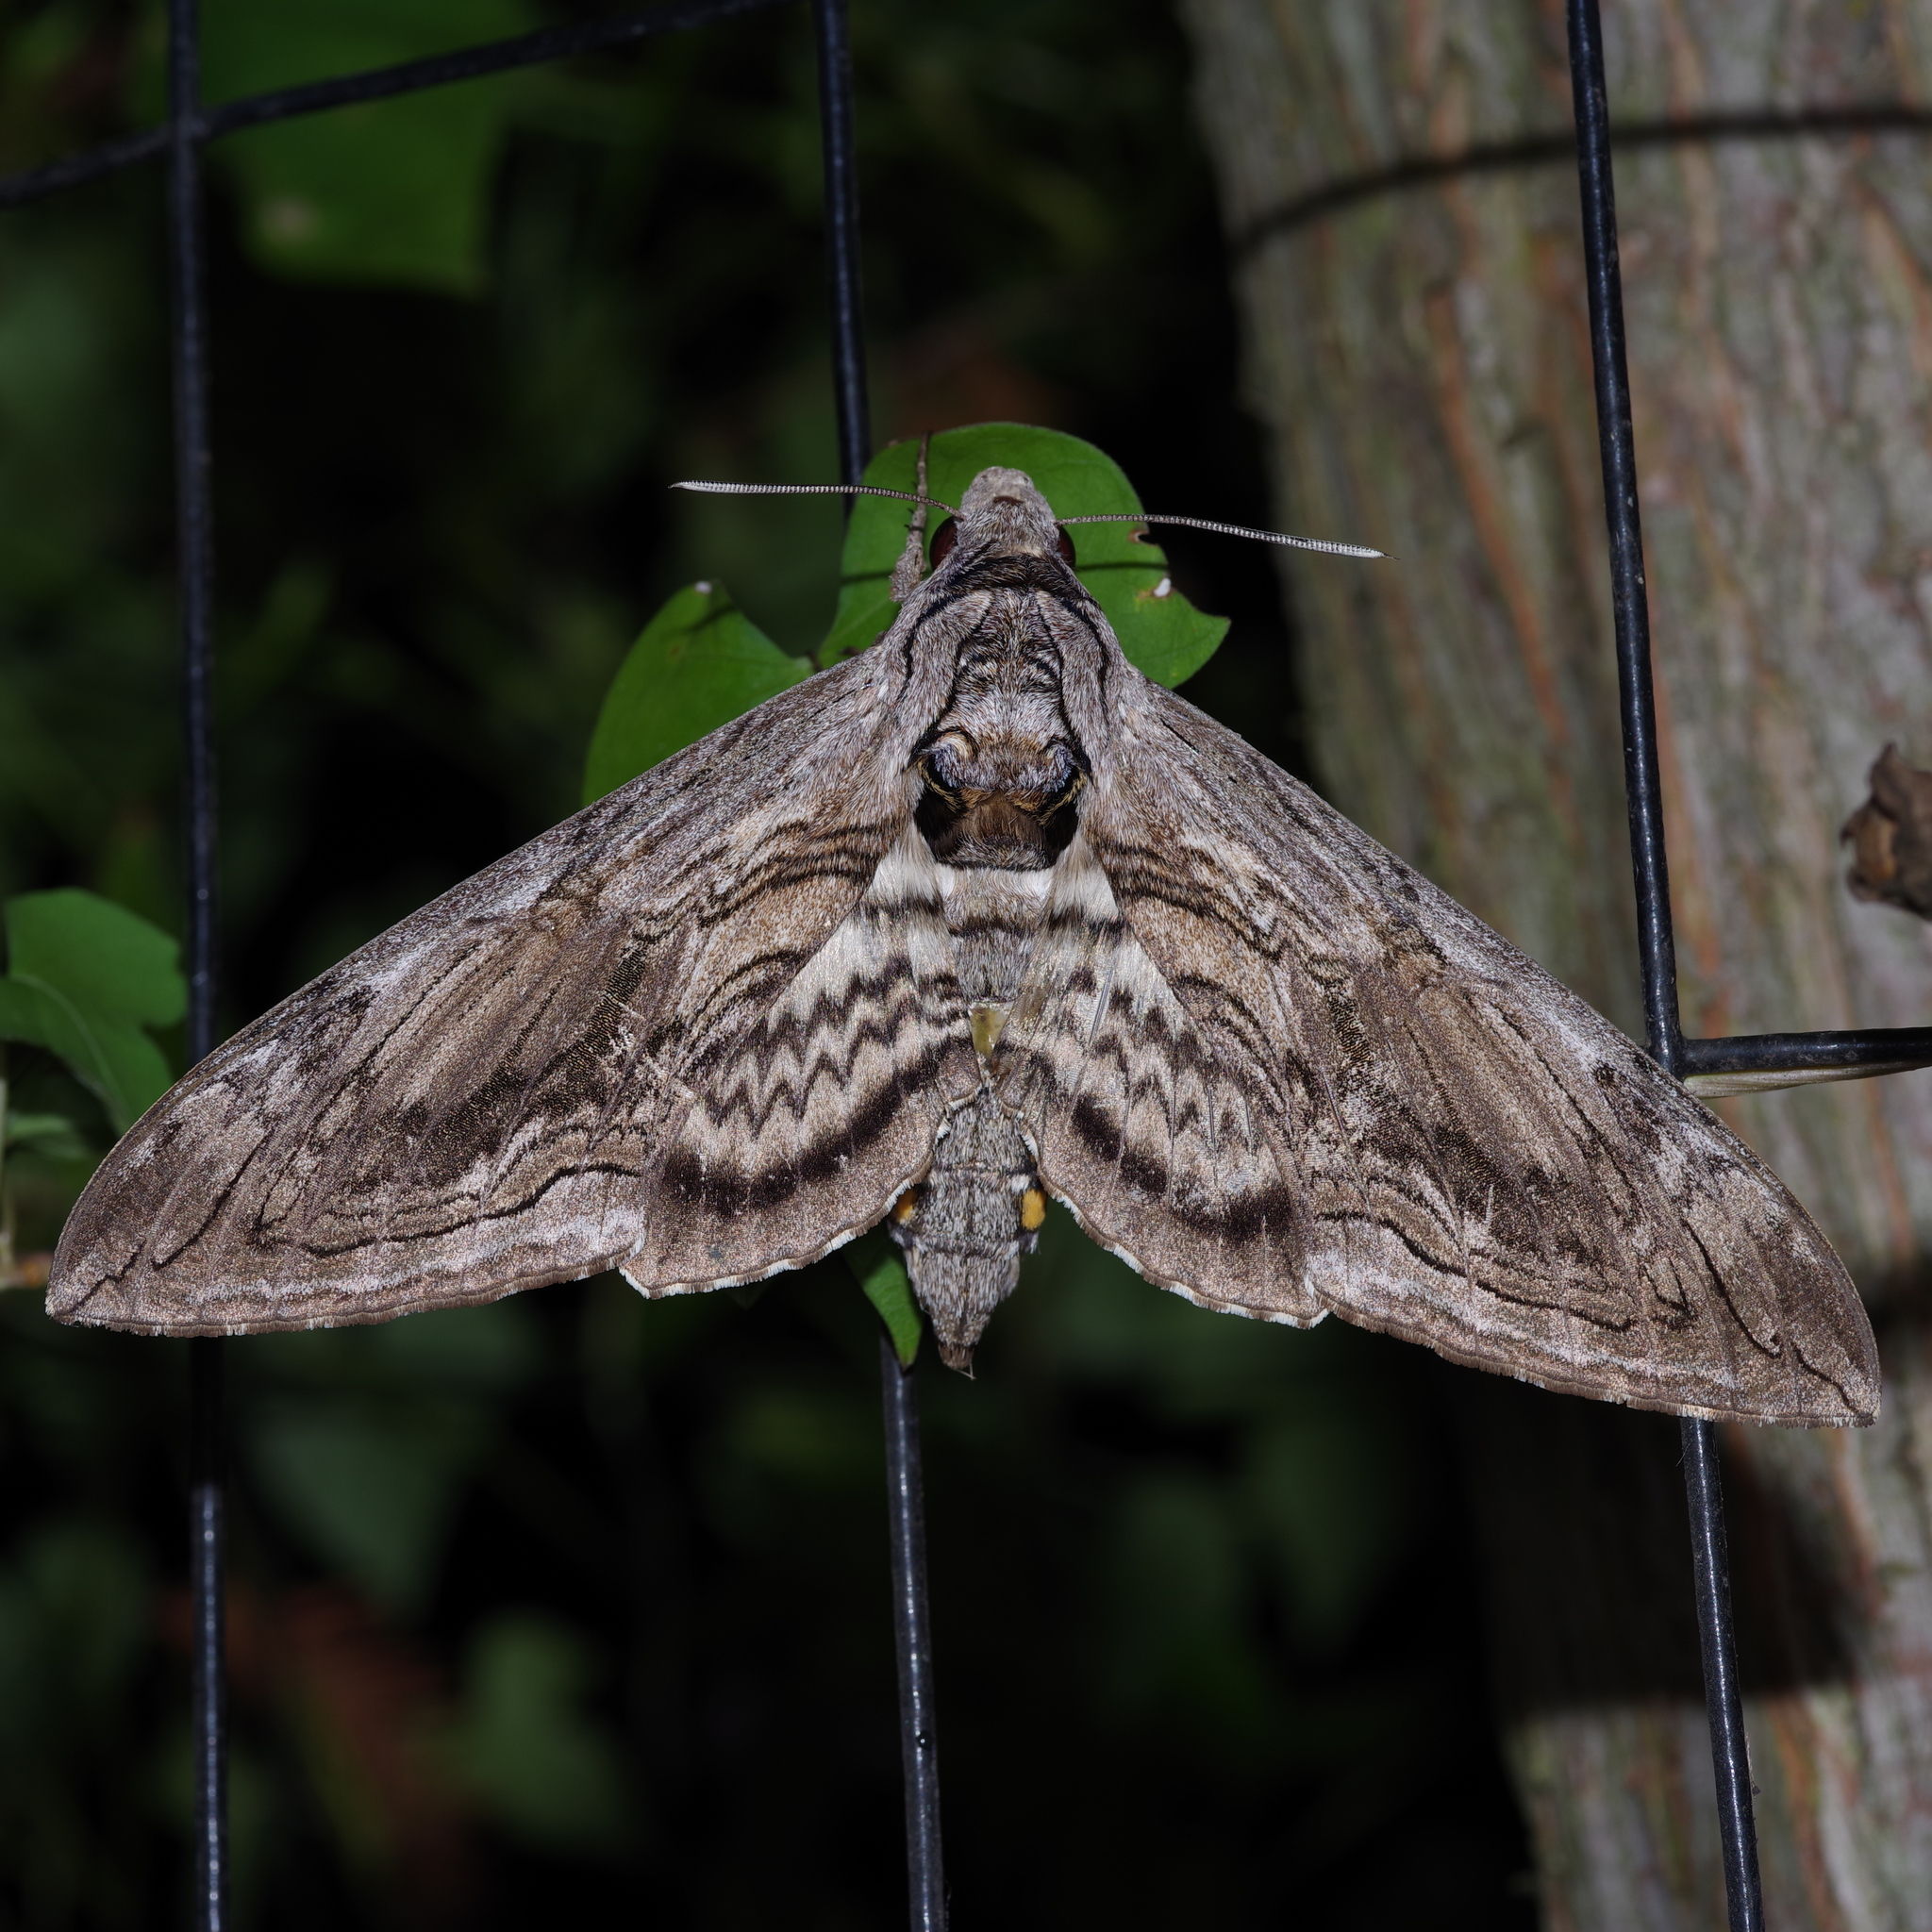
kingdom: Animalia
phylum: Arthropoda
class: Insecta
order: Lepidoptera
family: Sphingidae
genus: Manduca
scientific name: Manduca quinquemaculatus
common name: Five-spotted hawk-moth
